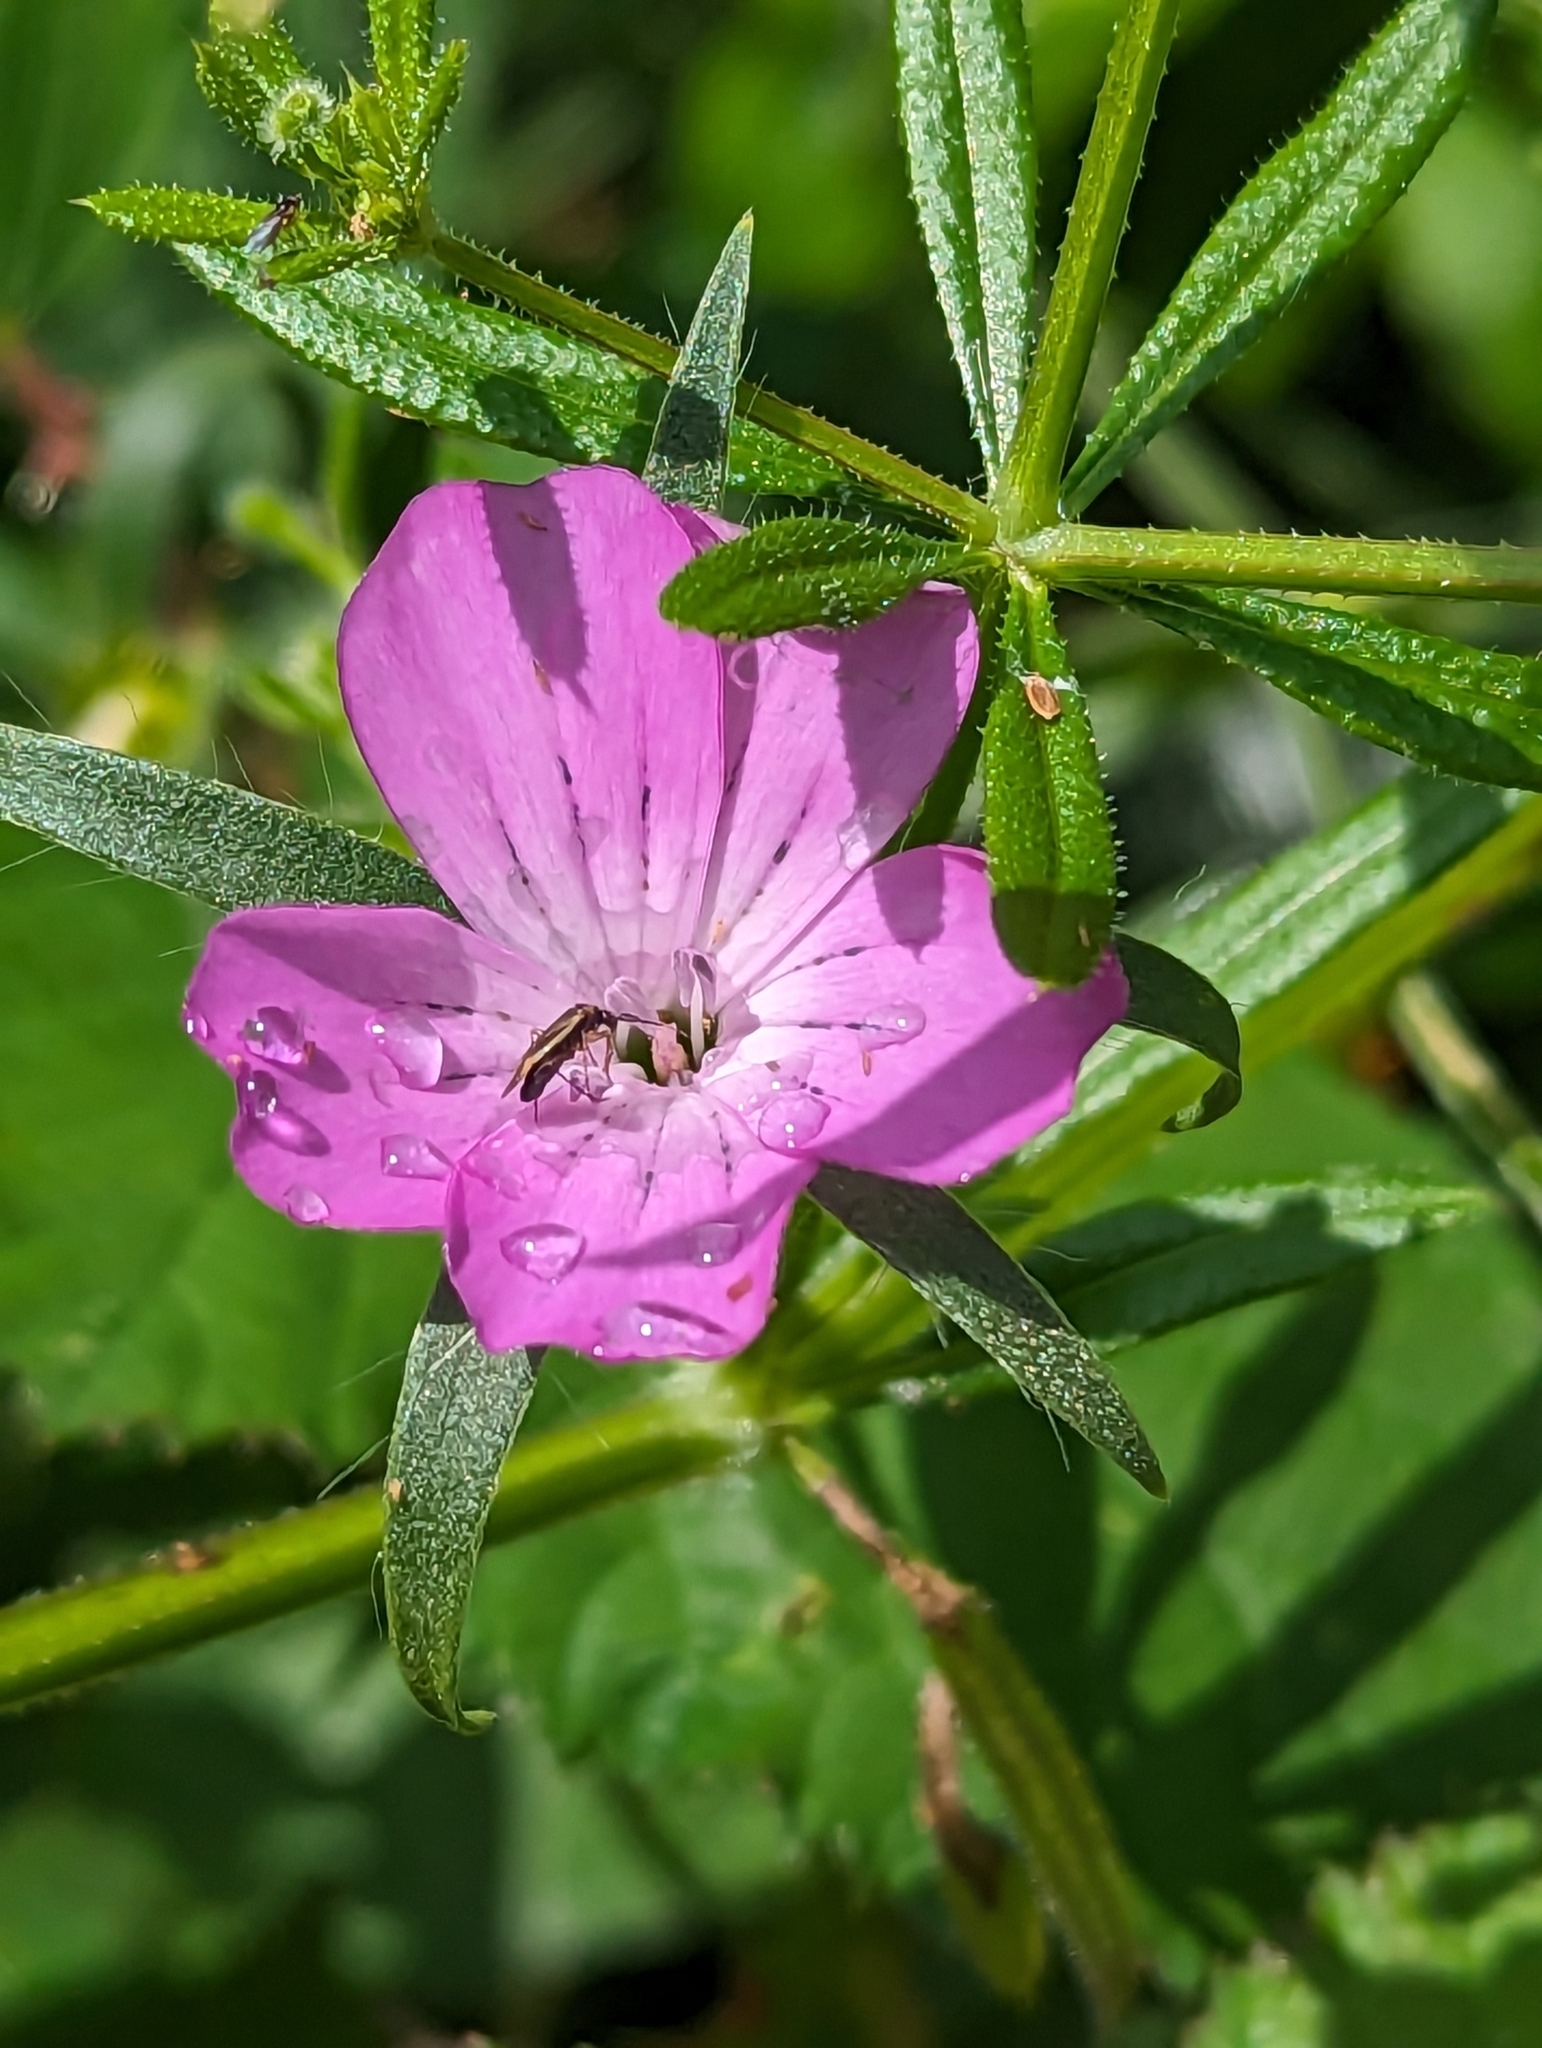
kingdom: Plantae
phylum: Tracheophyta
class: Magnoliopsida
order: Caryophyllales
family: Caryophyllaceae
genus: Agrostemma
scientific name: Agrostemma githago
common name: Common corncockle
